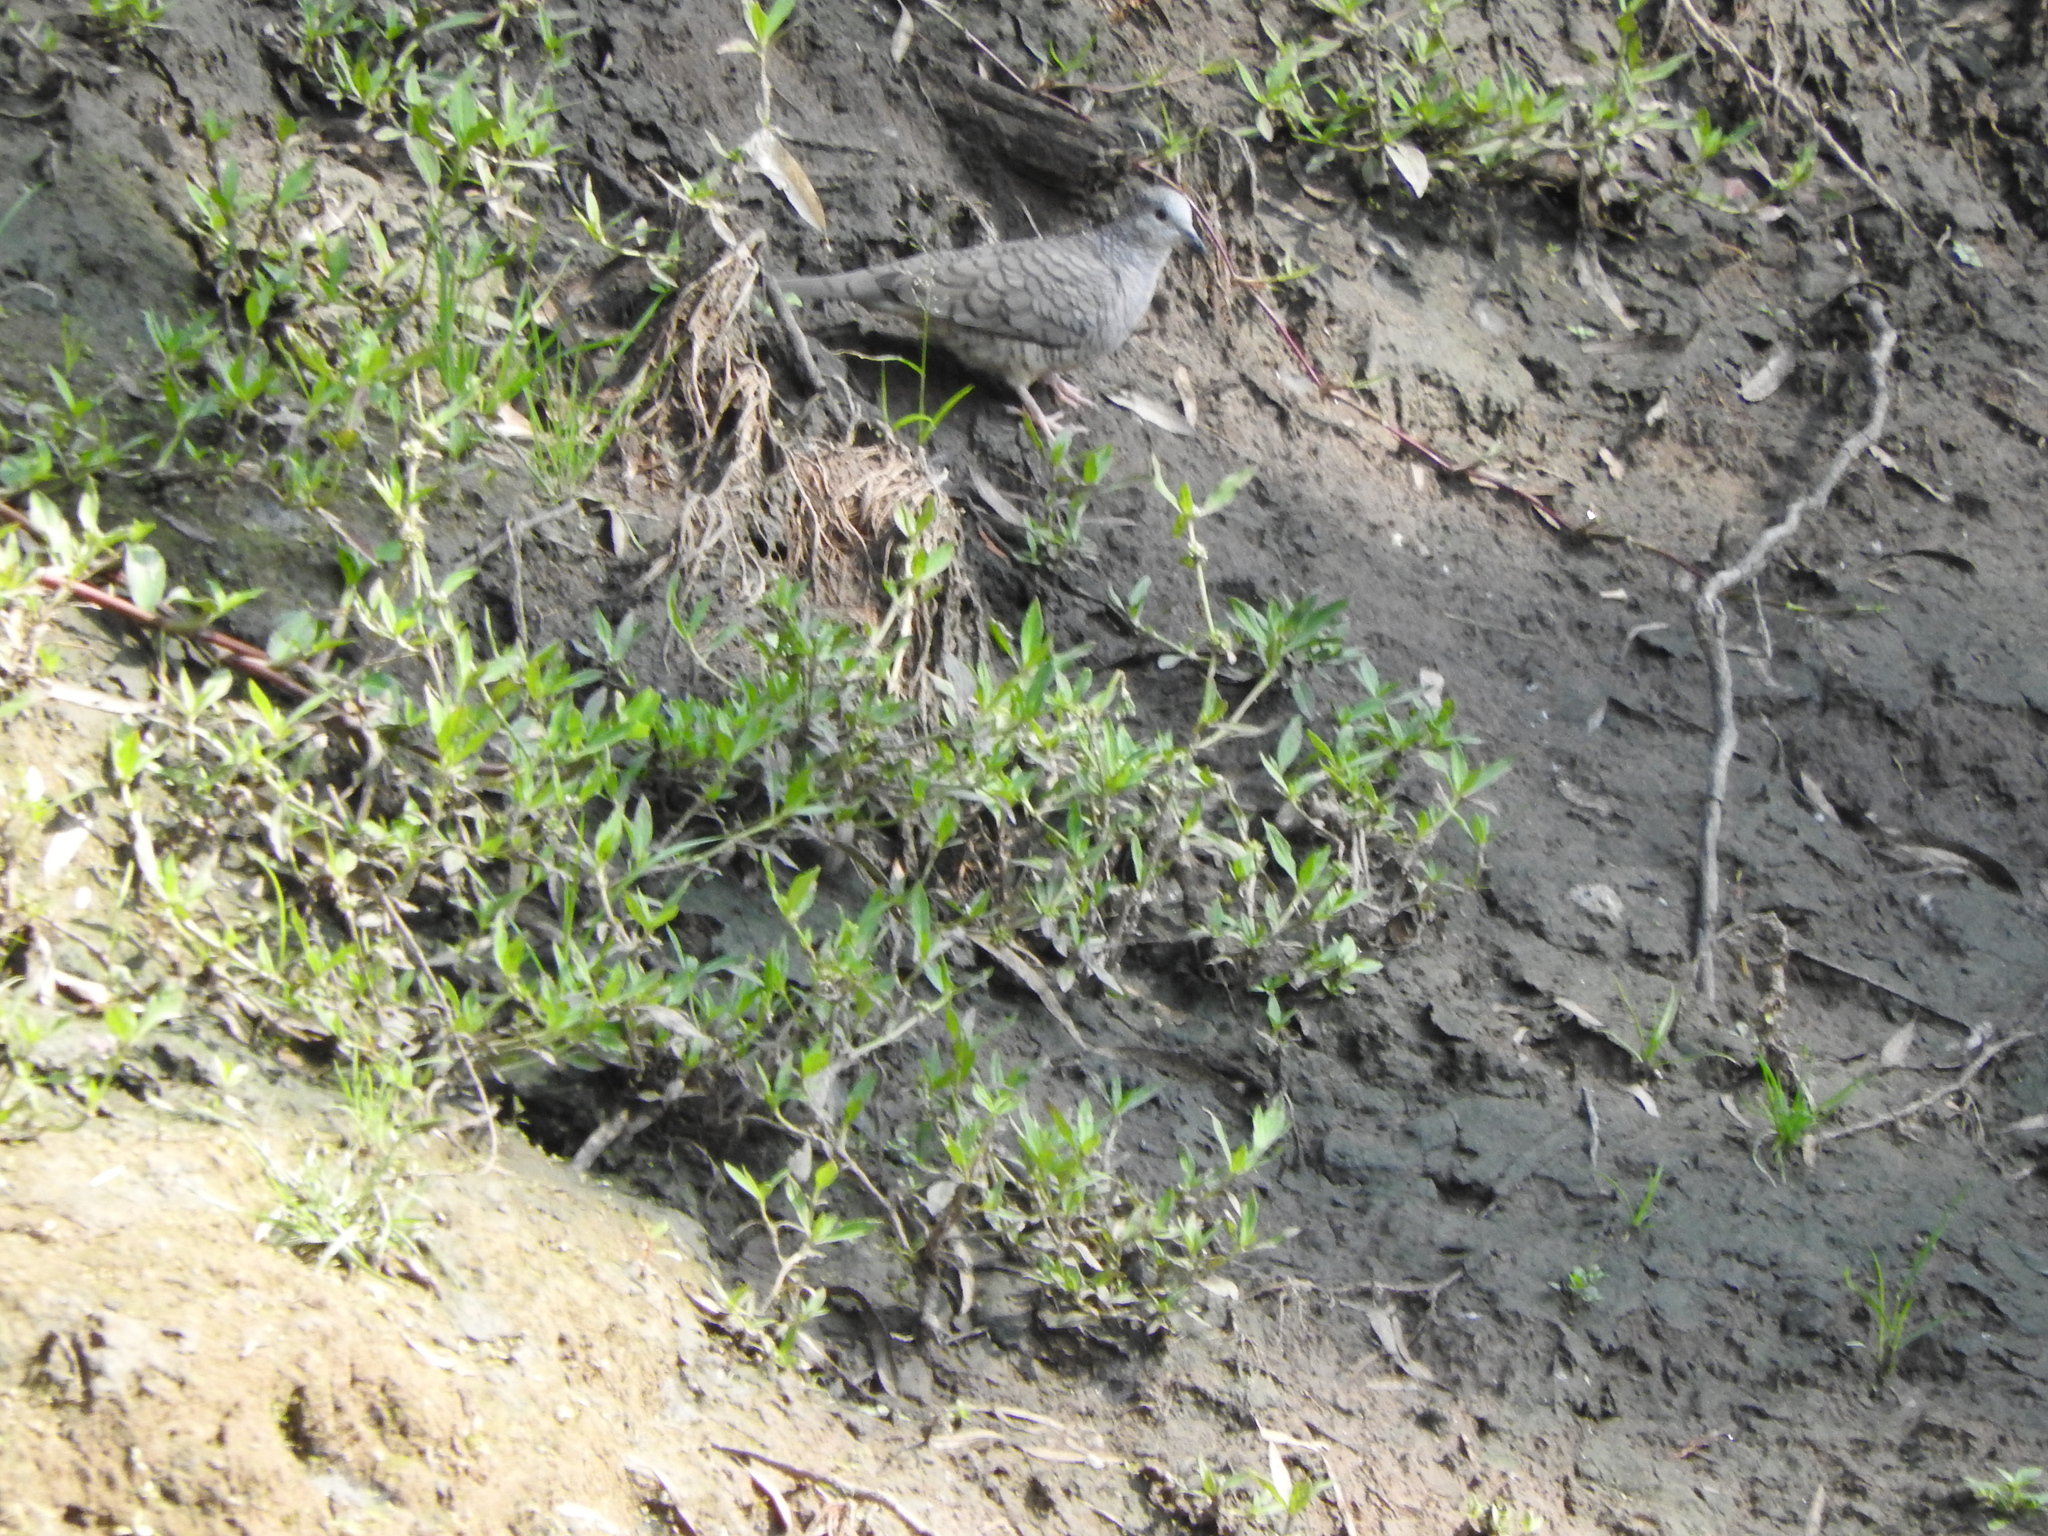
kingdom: Animalia
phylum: Chordata
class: Aves
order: Columbiformes
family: Columbidae
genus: Columbina
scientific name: Columbina inca
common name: Inca dove
